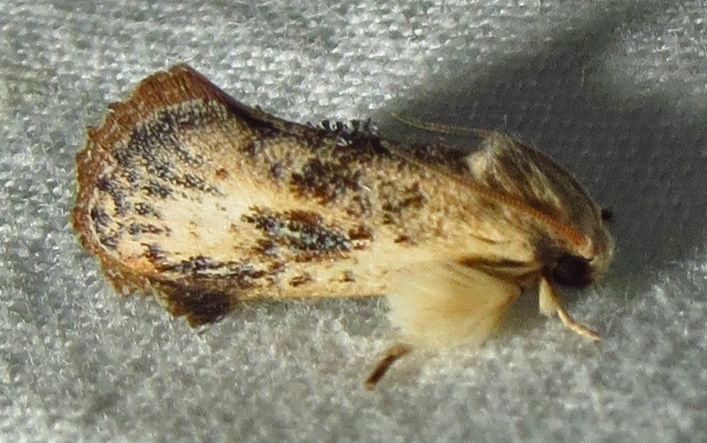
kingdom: Animalia
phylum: Arthropoda
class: Insecta
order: Lepidoptera
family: Tineidae
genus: Acrolophus
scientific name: Acrolophus mycetophagus
